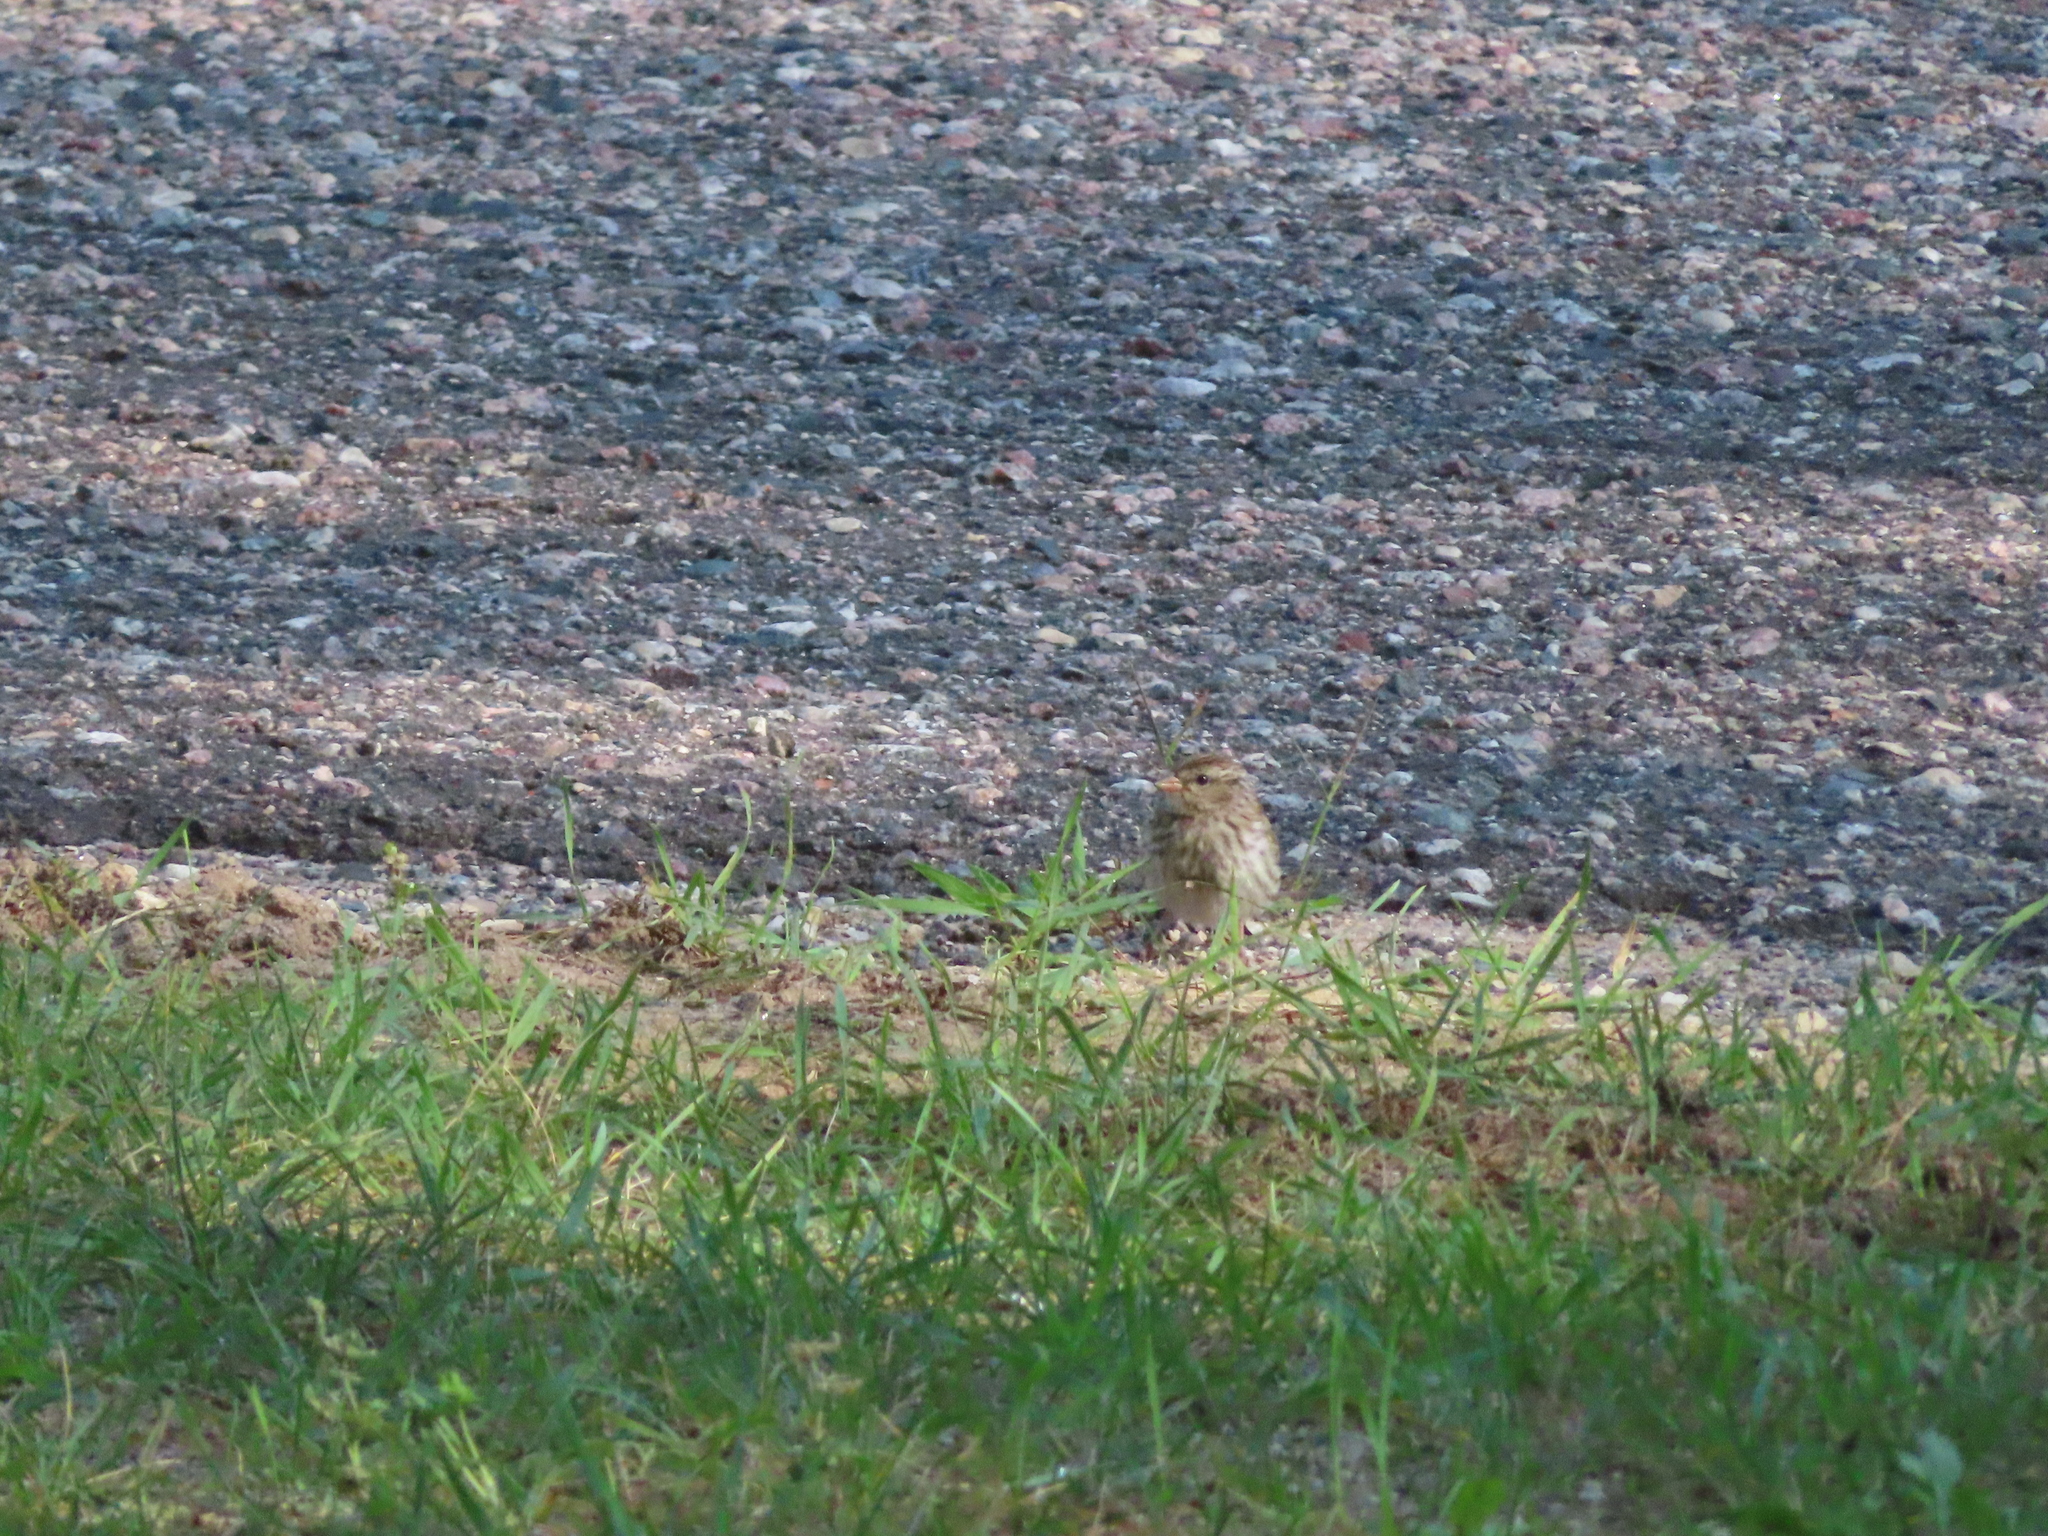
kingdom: Animalia
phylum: Chordata
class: Aves
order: Passeriformes
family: Passerellidae
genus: Spizella
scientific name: Spizella passerina
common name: Chipping sparrow
